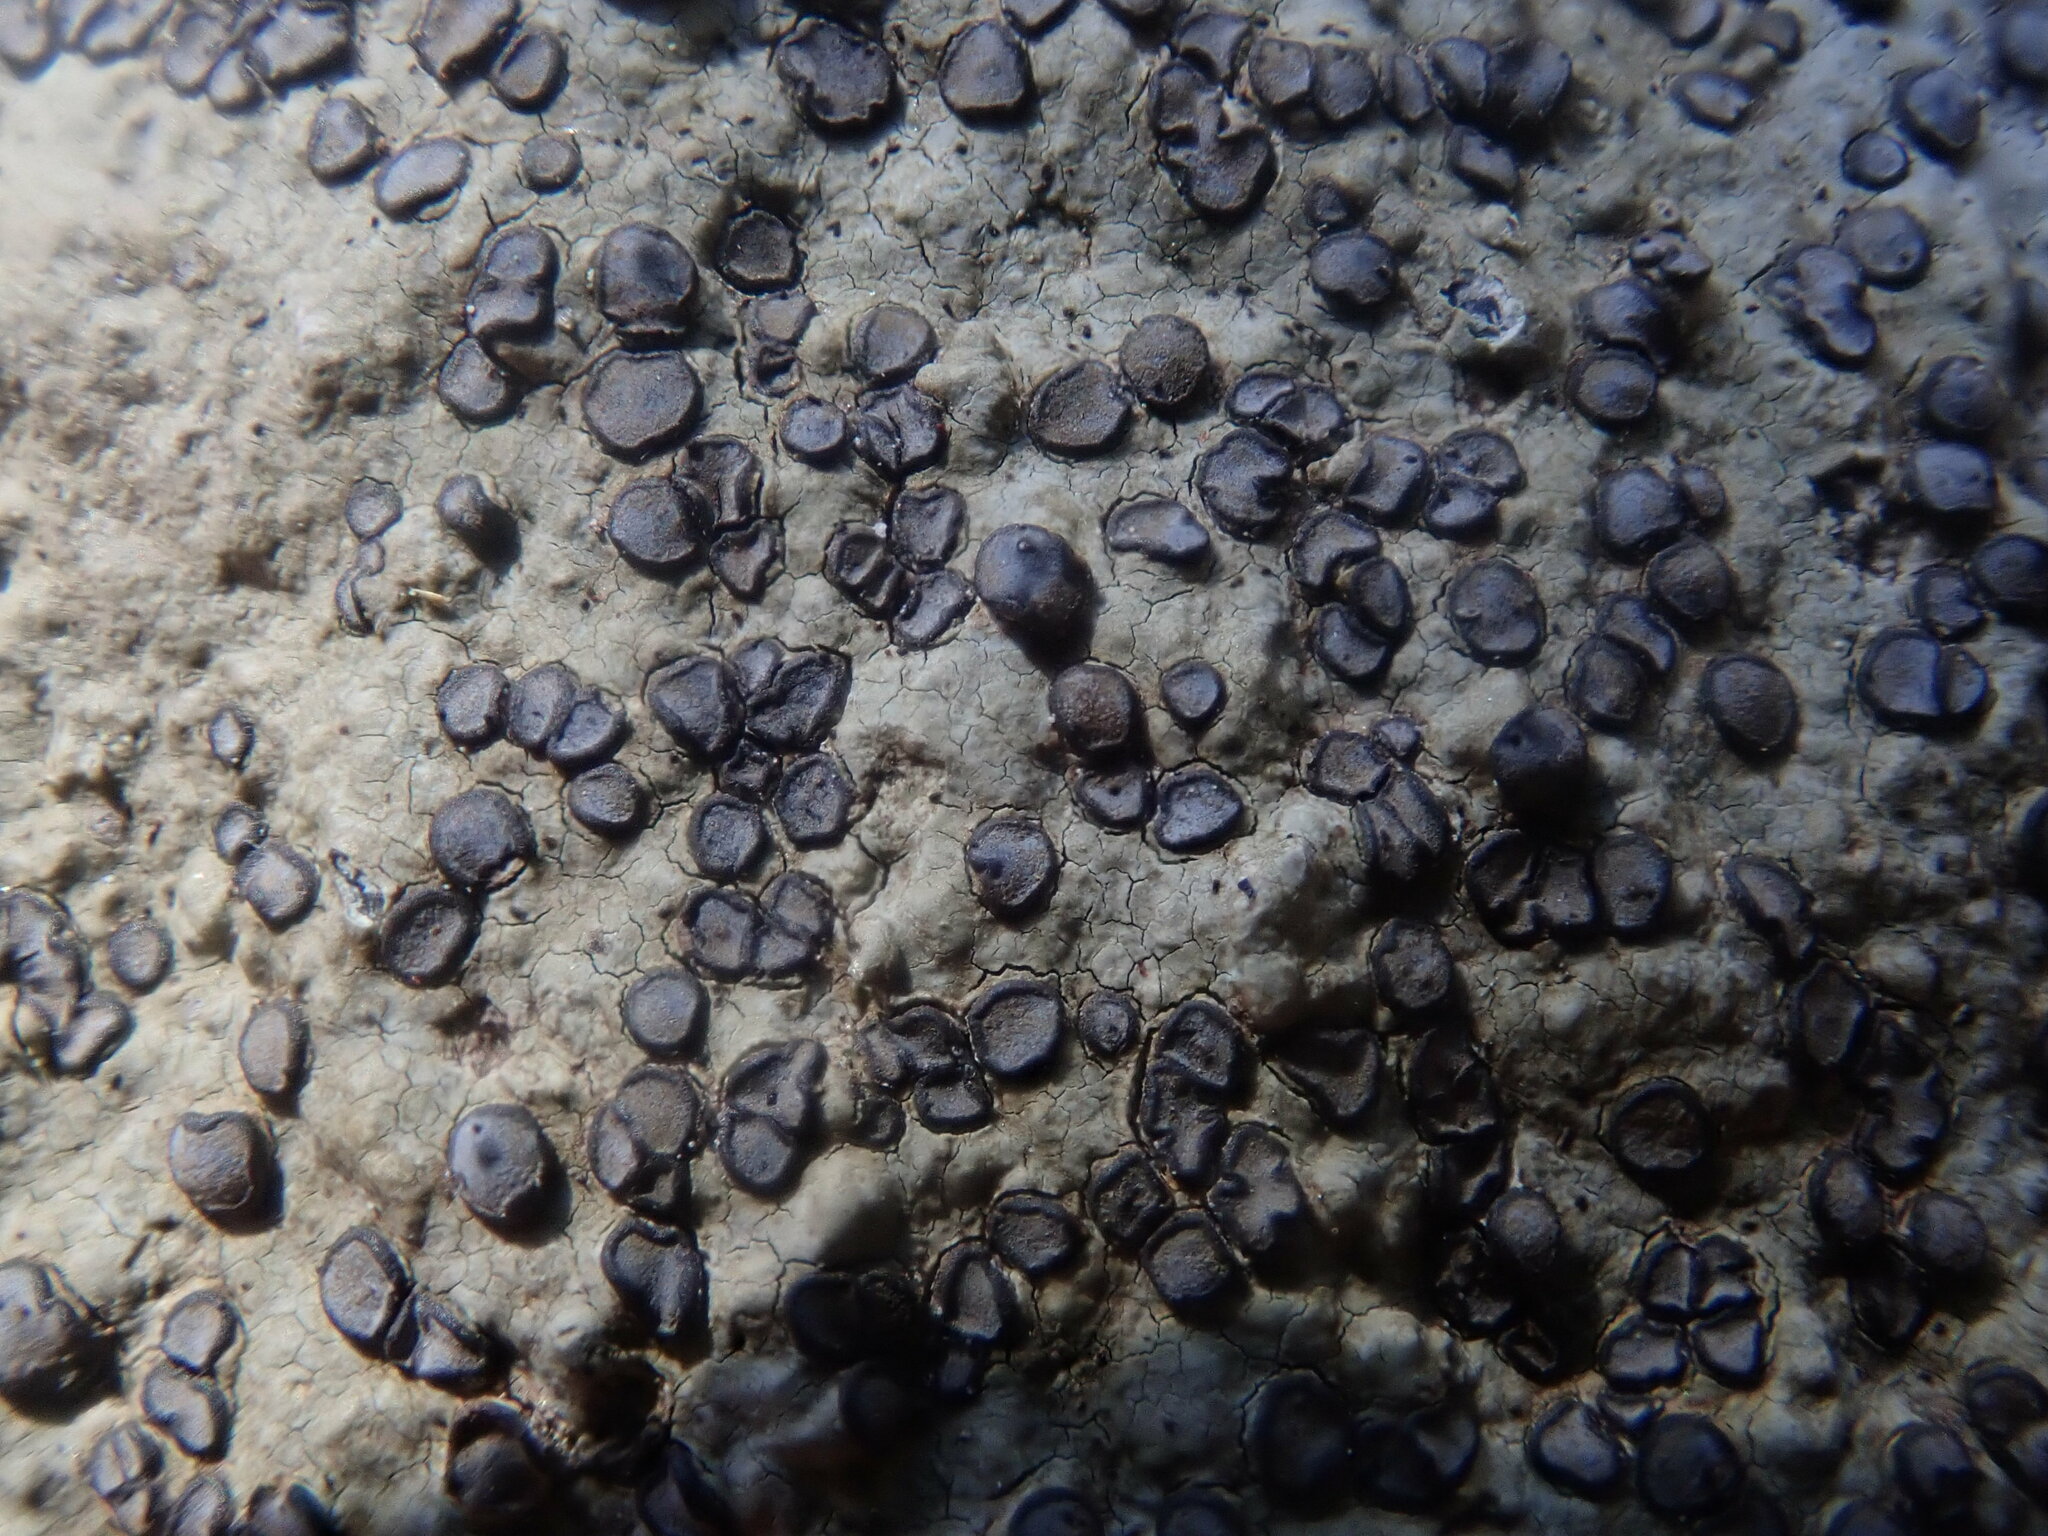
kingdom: Fungi
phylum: Ascomycota
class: Lecanoromycetes
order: Lecideales
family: Lecideaceae
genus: Porpidia
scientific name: Porpidia albocaerulescens
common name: Smokey-eyed boulder lichen
